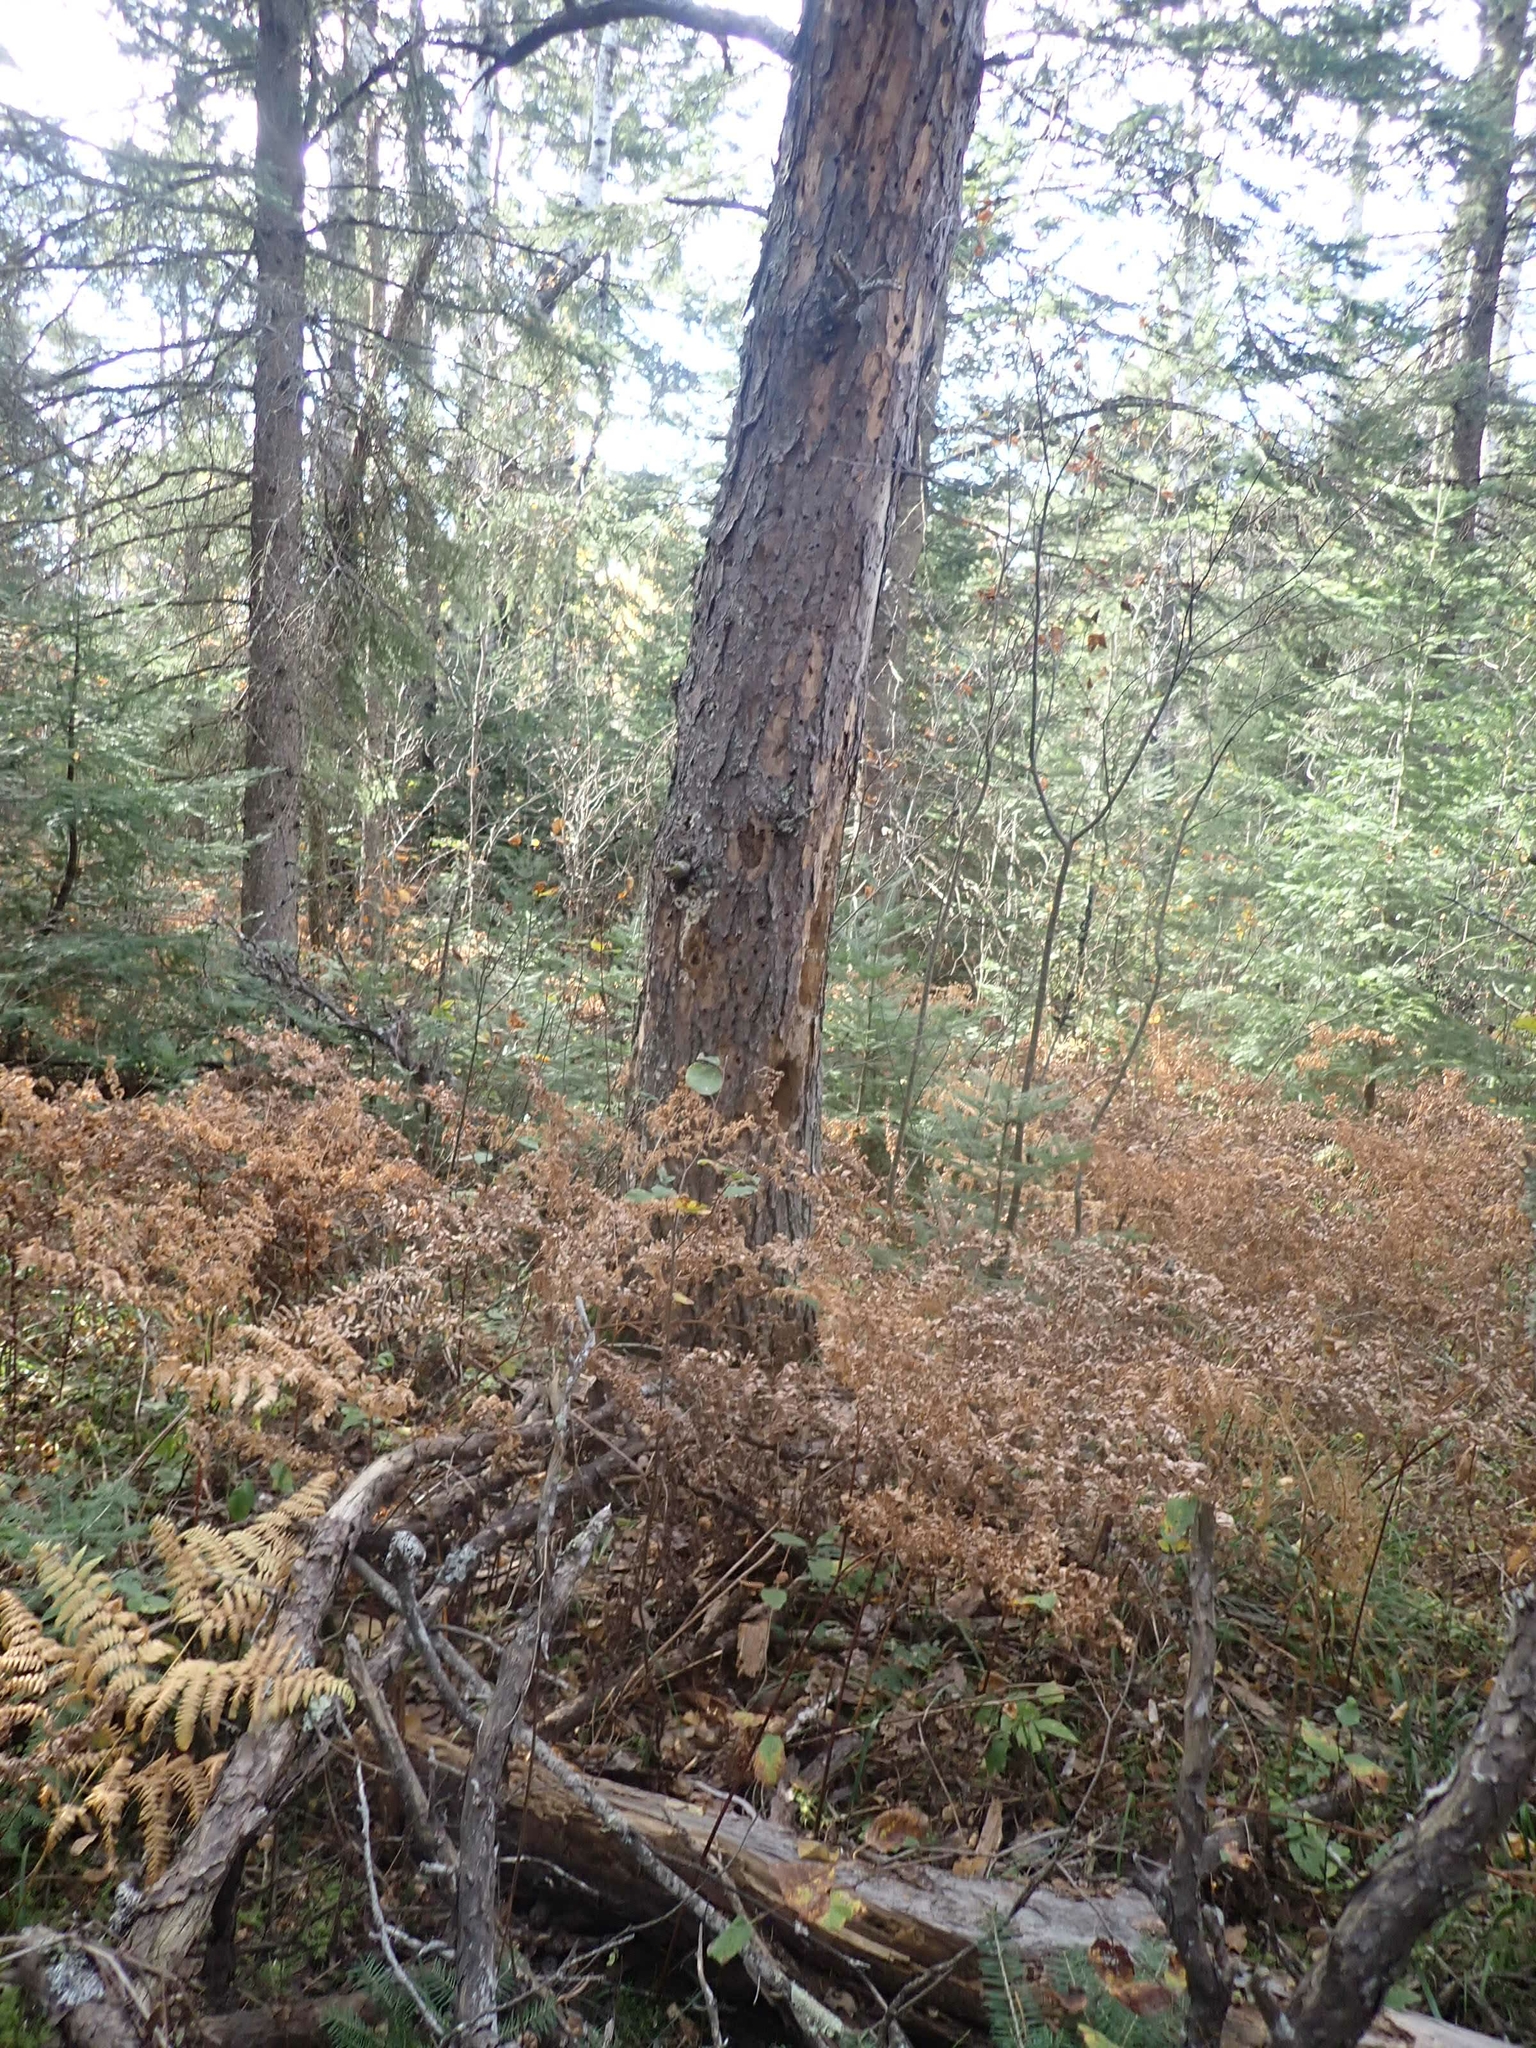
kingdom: Plantae
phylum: Tracheophyta
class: Polypodiopsida
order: Polypodiales
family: Dennstaedtiaceae
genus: Pteridium
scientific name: Pteridium aquilinum
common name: Bracken
